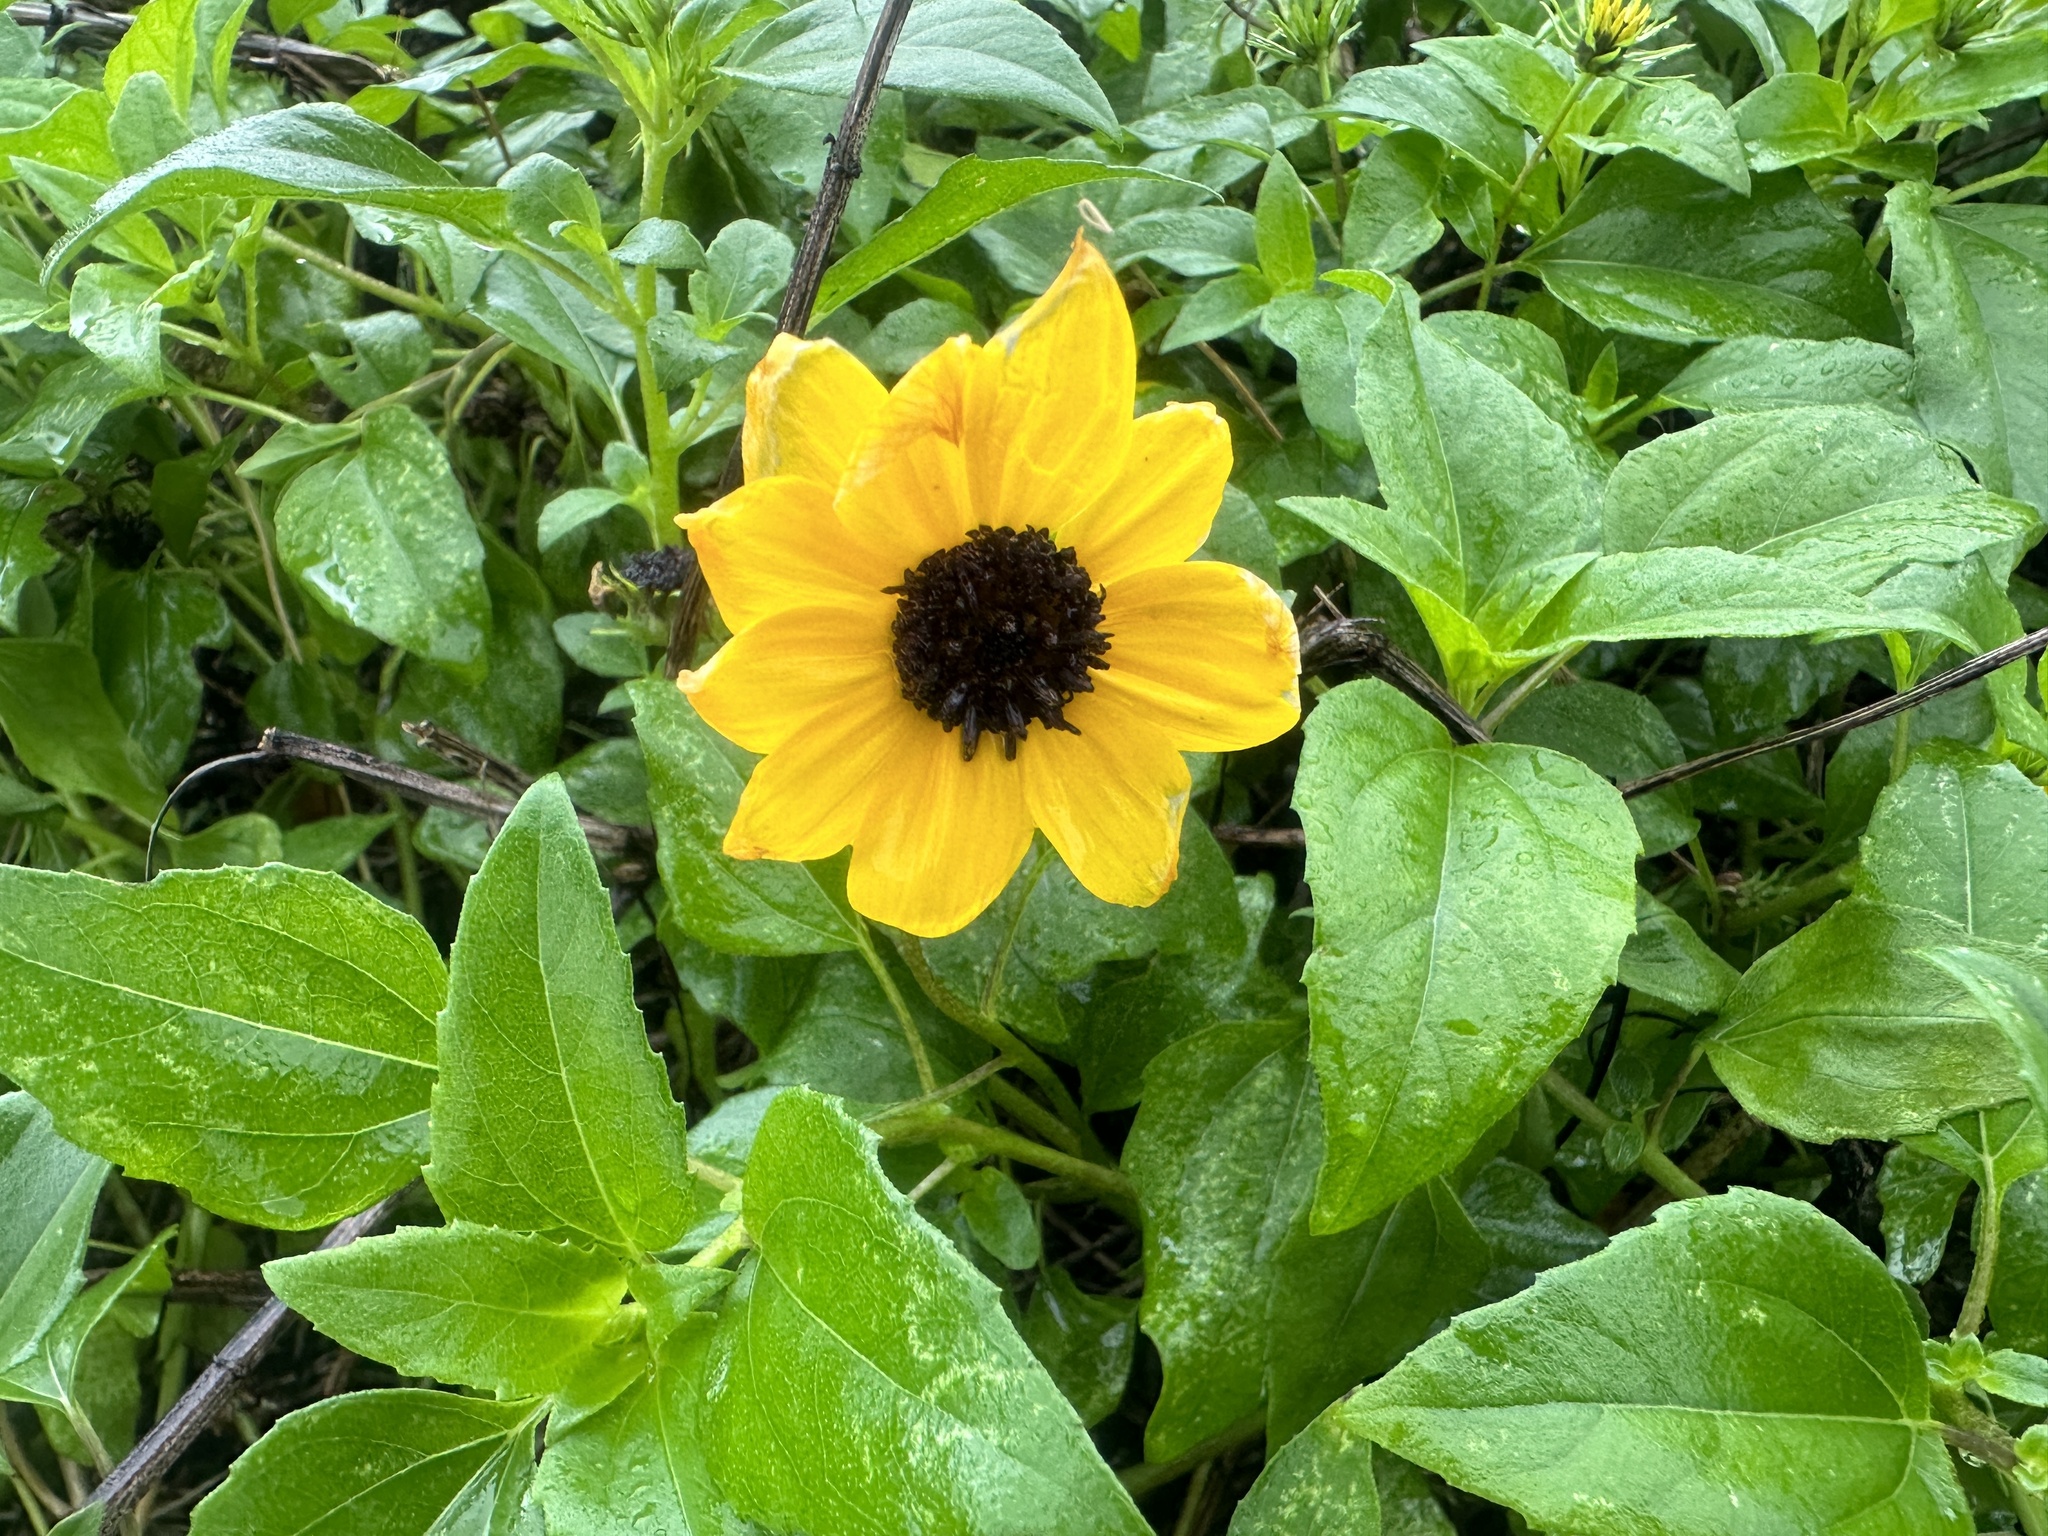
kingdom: Plantae
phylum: Tracheophyta
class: Magnoliopsida
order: Asterales
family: Asteraceae
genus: Helianthus
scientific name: Helianthus debilis
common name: Weak sunflower
